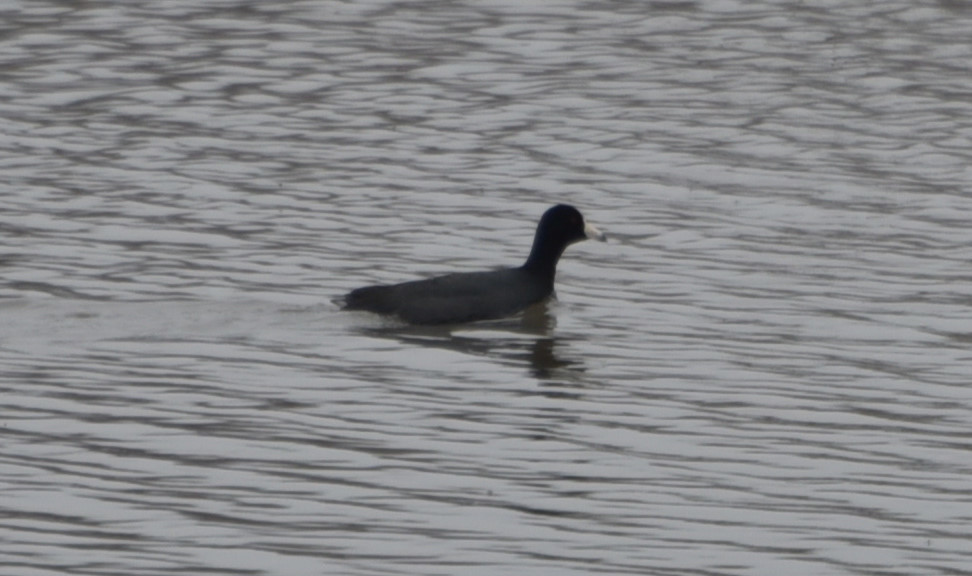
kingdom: Animalia
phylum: Chordata
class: Aves
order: Gruiformes
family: Rallidae
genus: Fulica
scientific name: Fulica americana
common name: American coot
